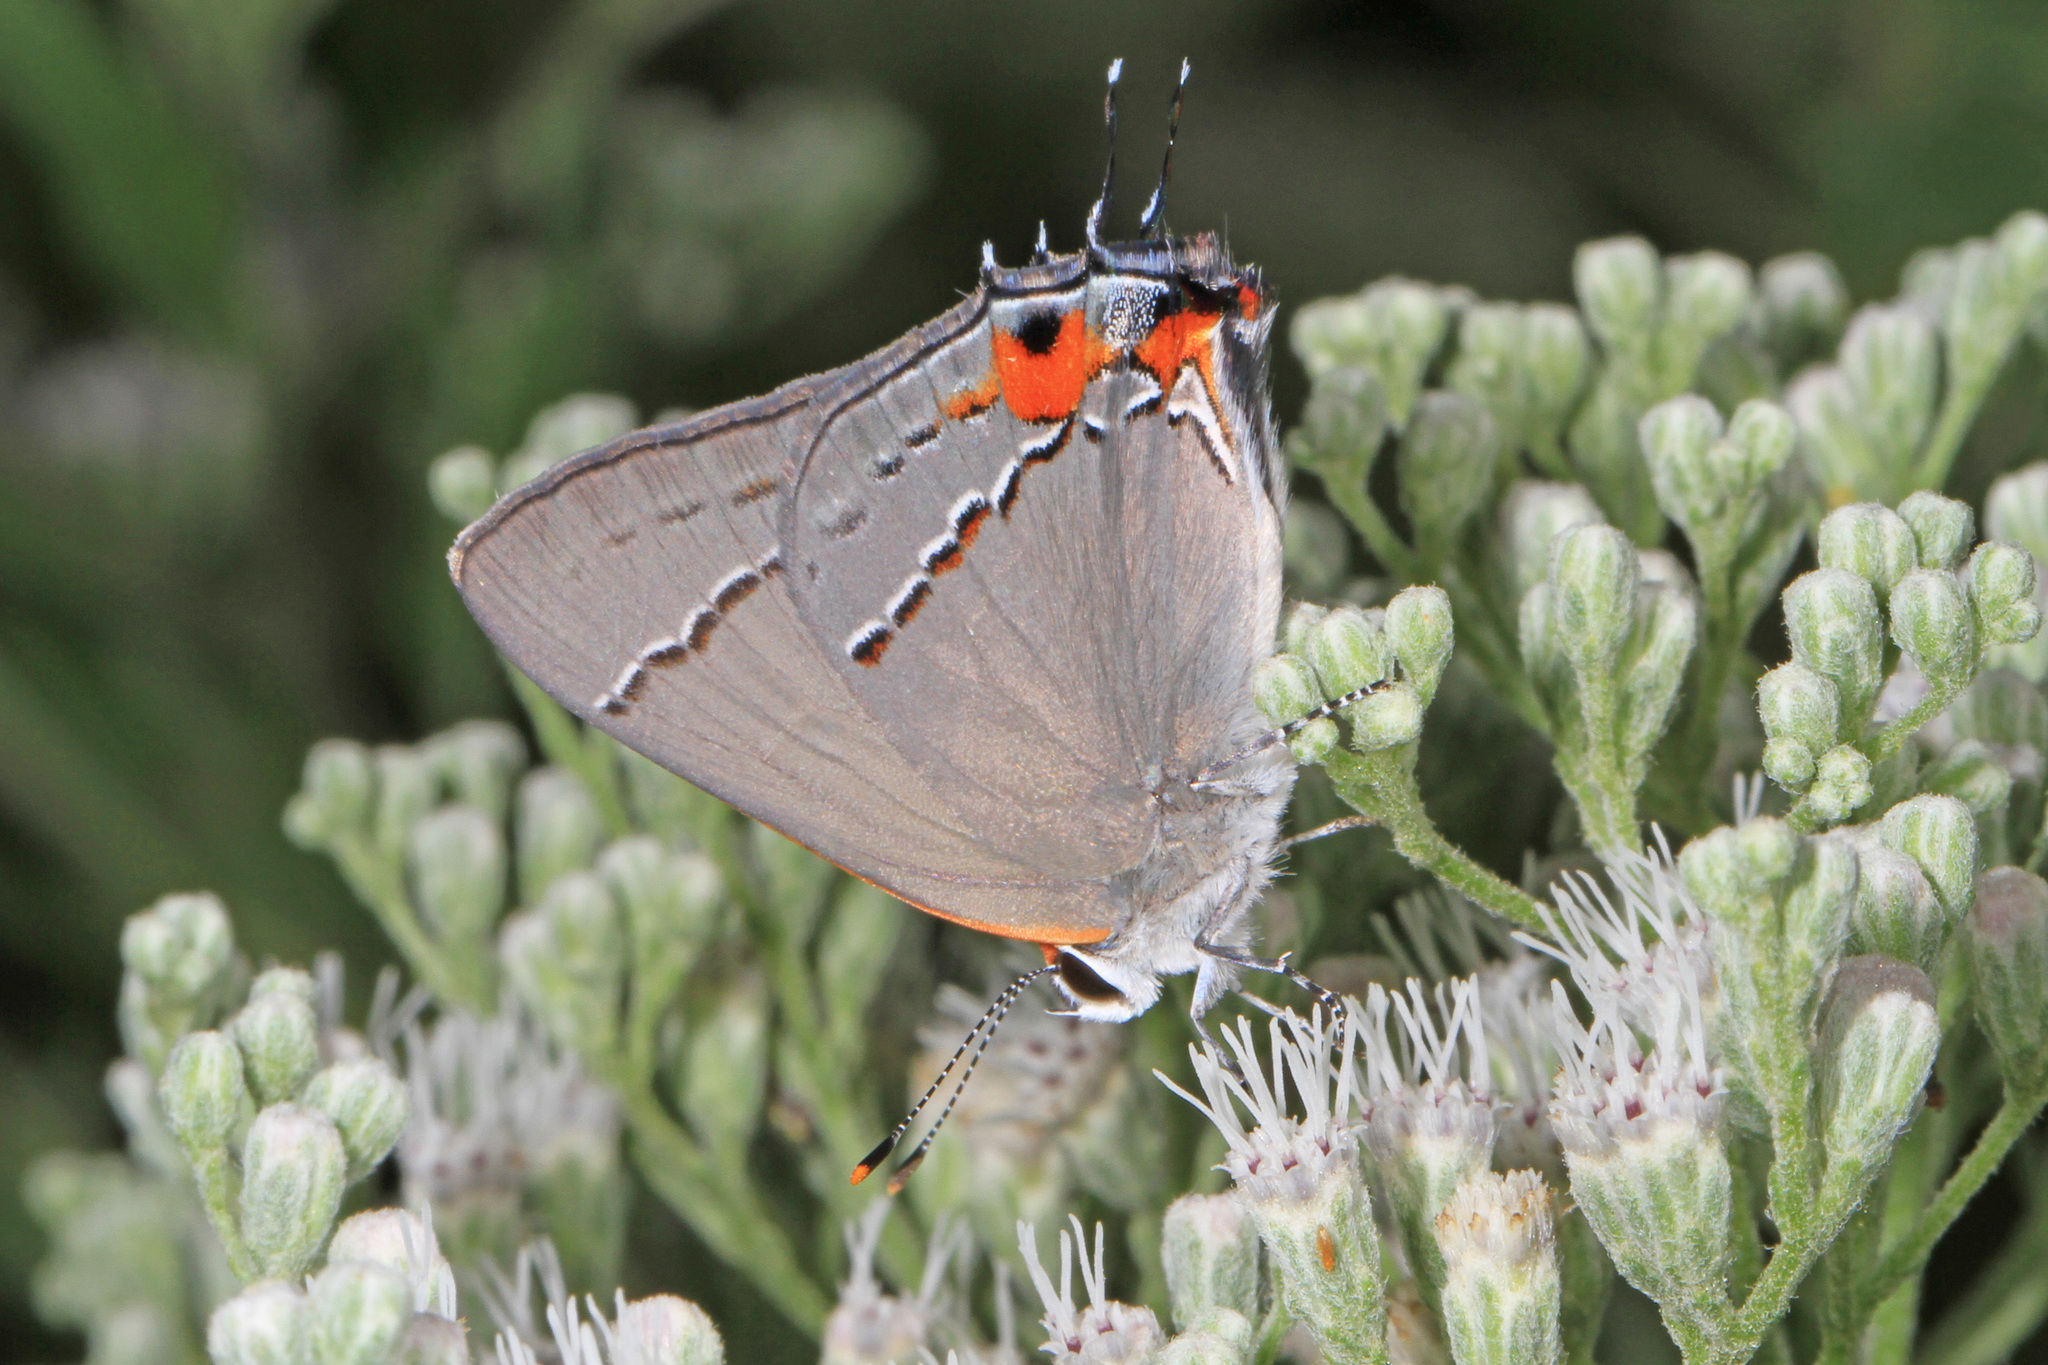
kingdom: Animalia
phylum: Arthropoda
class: Insecta
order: Lepidoptera
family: Lycaenidae
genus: Strymon
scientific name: Strymon melinus
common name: Gray hairstreak
